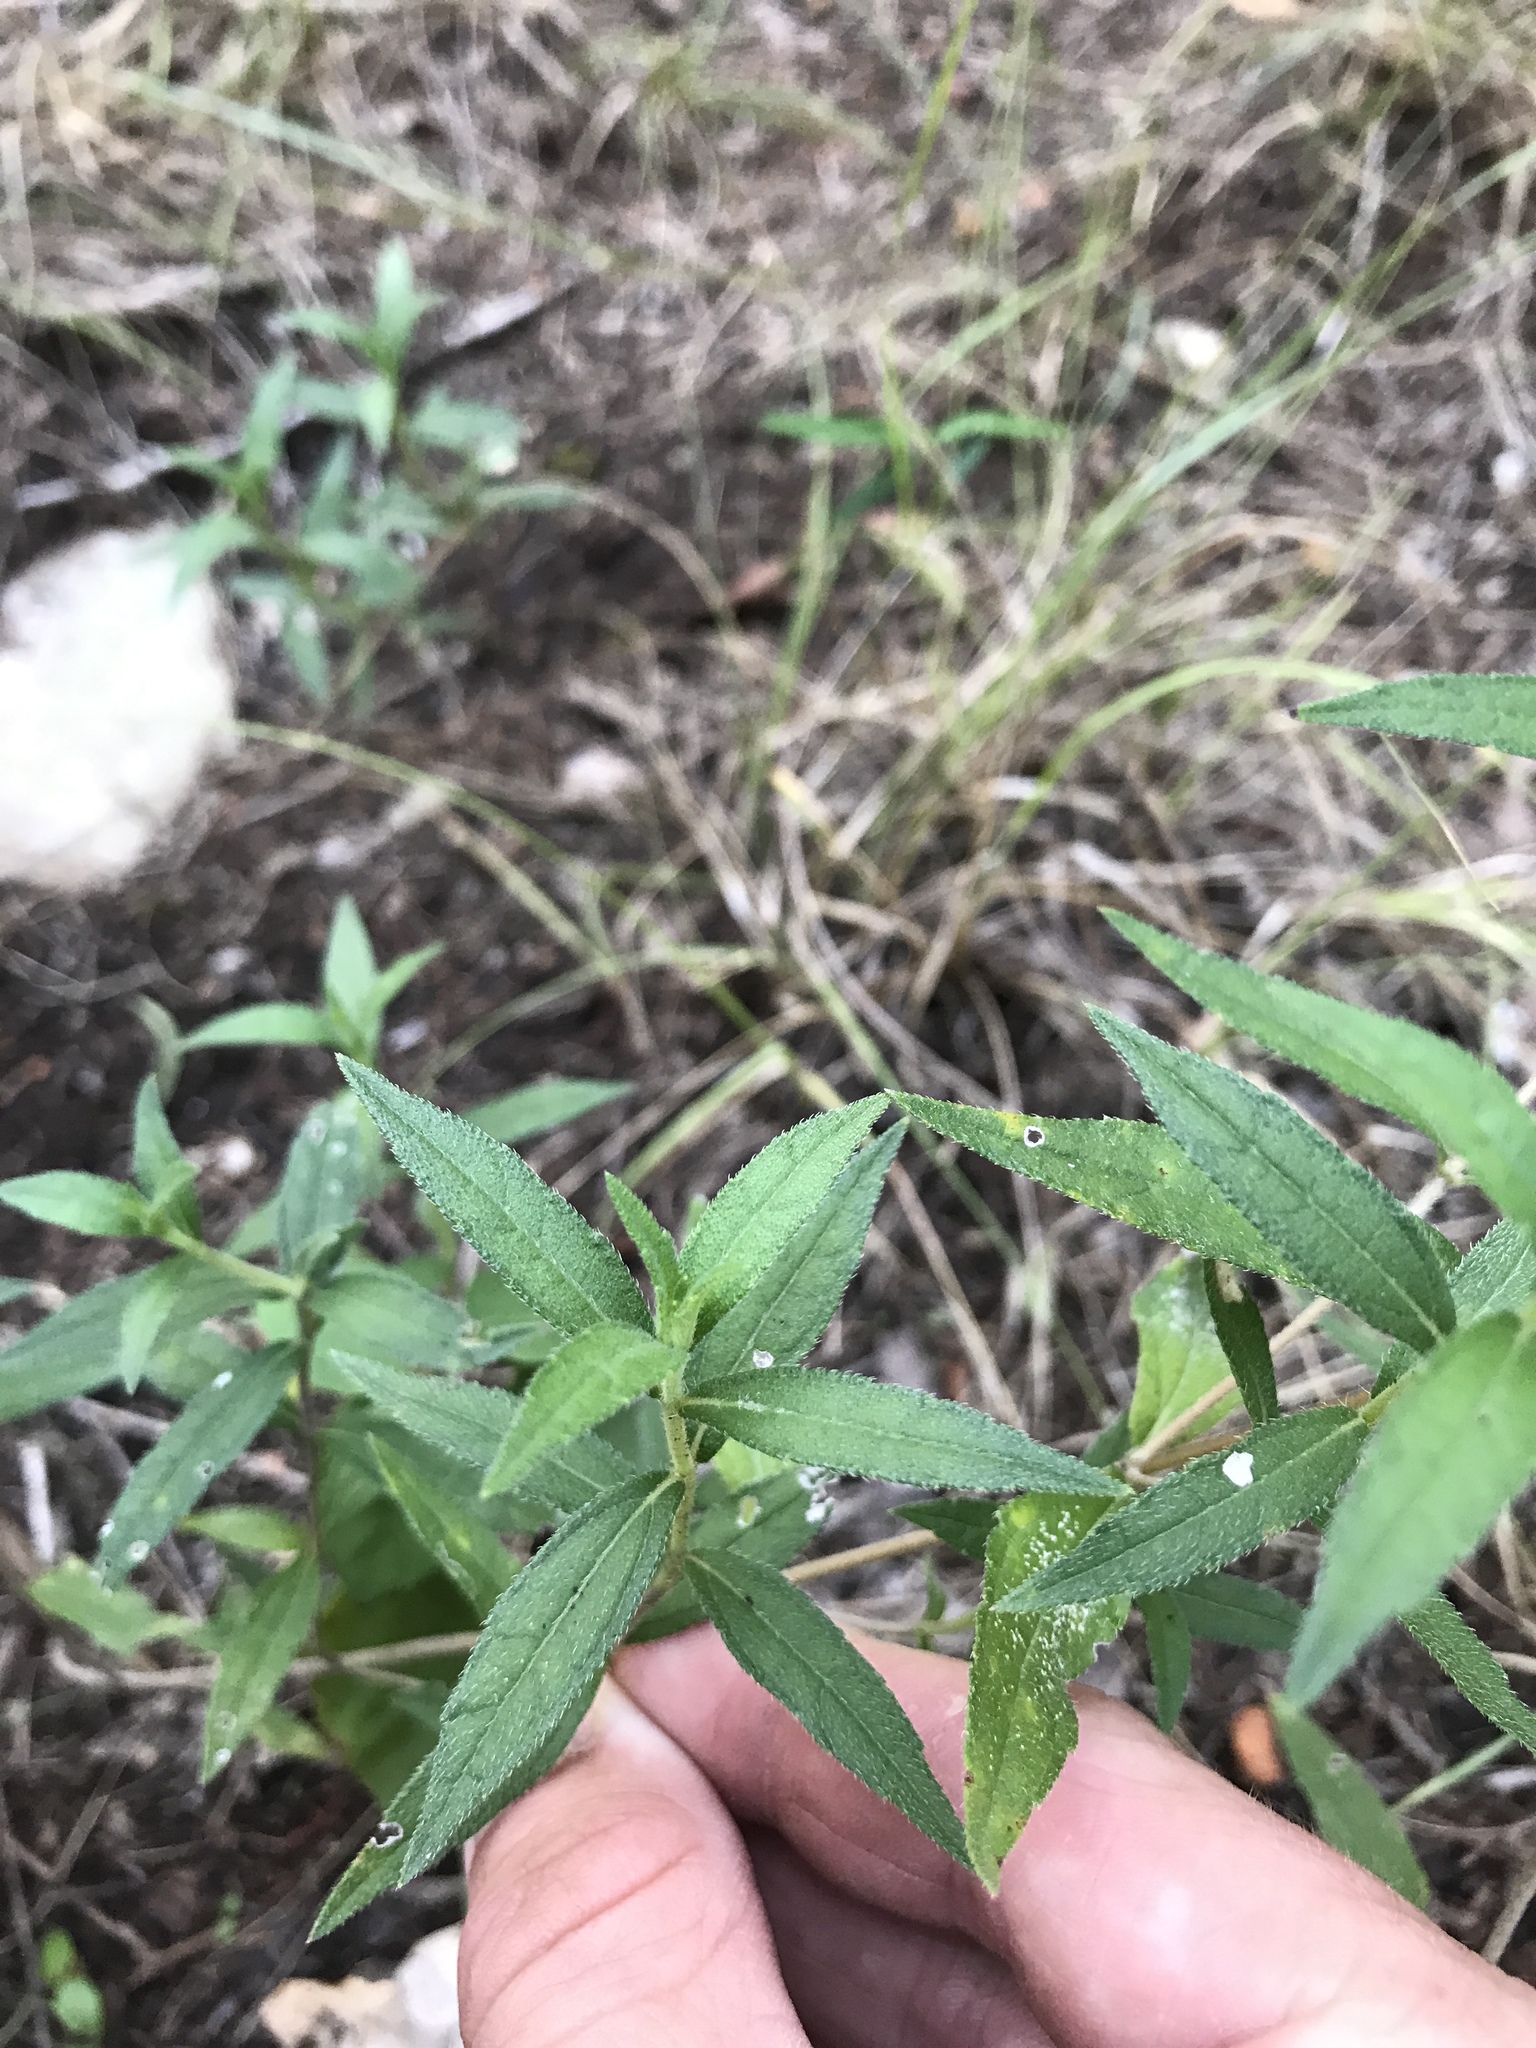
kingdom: Plantae
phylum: Tracheophyta
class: Magnoliopsida
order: Asterales
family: Asteraceae
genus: Wedelia
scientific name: Wedelia acapulcensis
